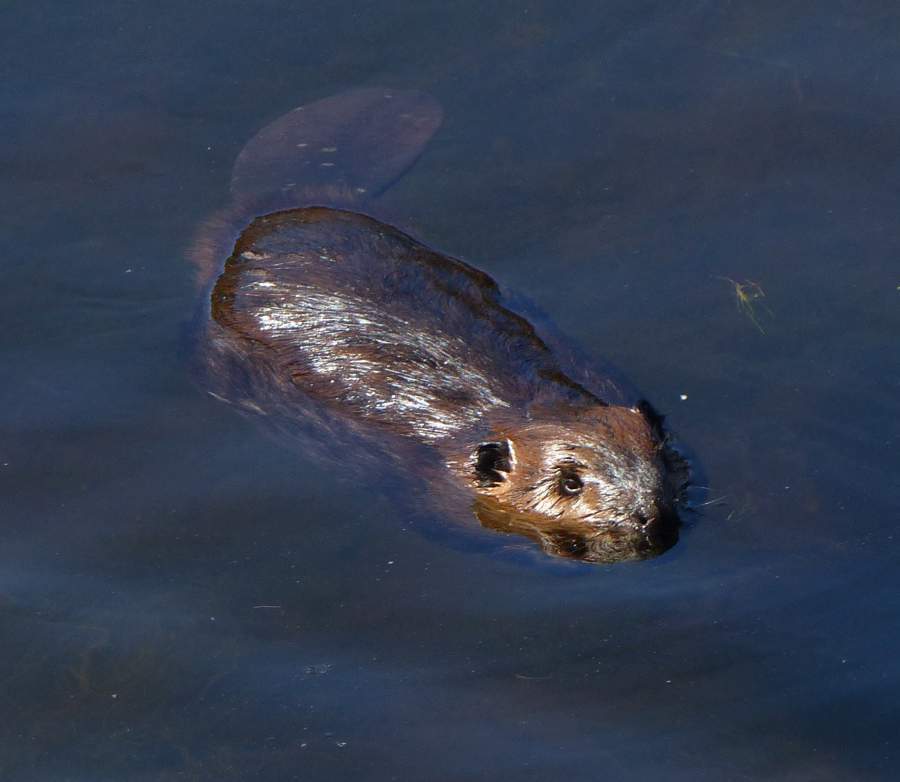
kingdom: Animalia
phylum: Chordata
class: Mammalia
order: Rodentia
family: Castoridae
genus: Castor
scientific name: Castor canadensis
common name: American beaver
